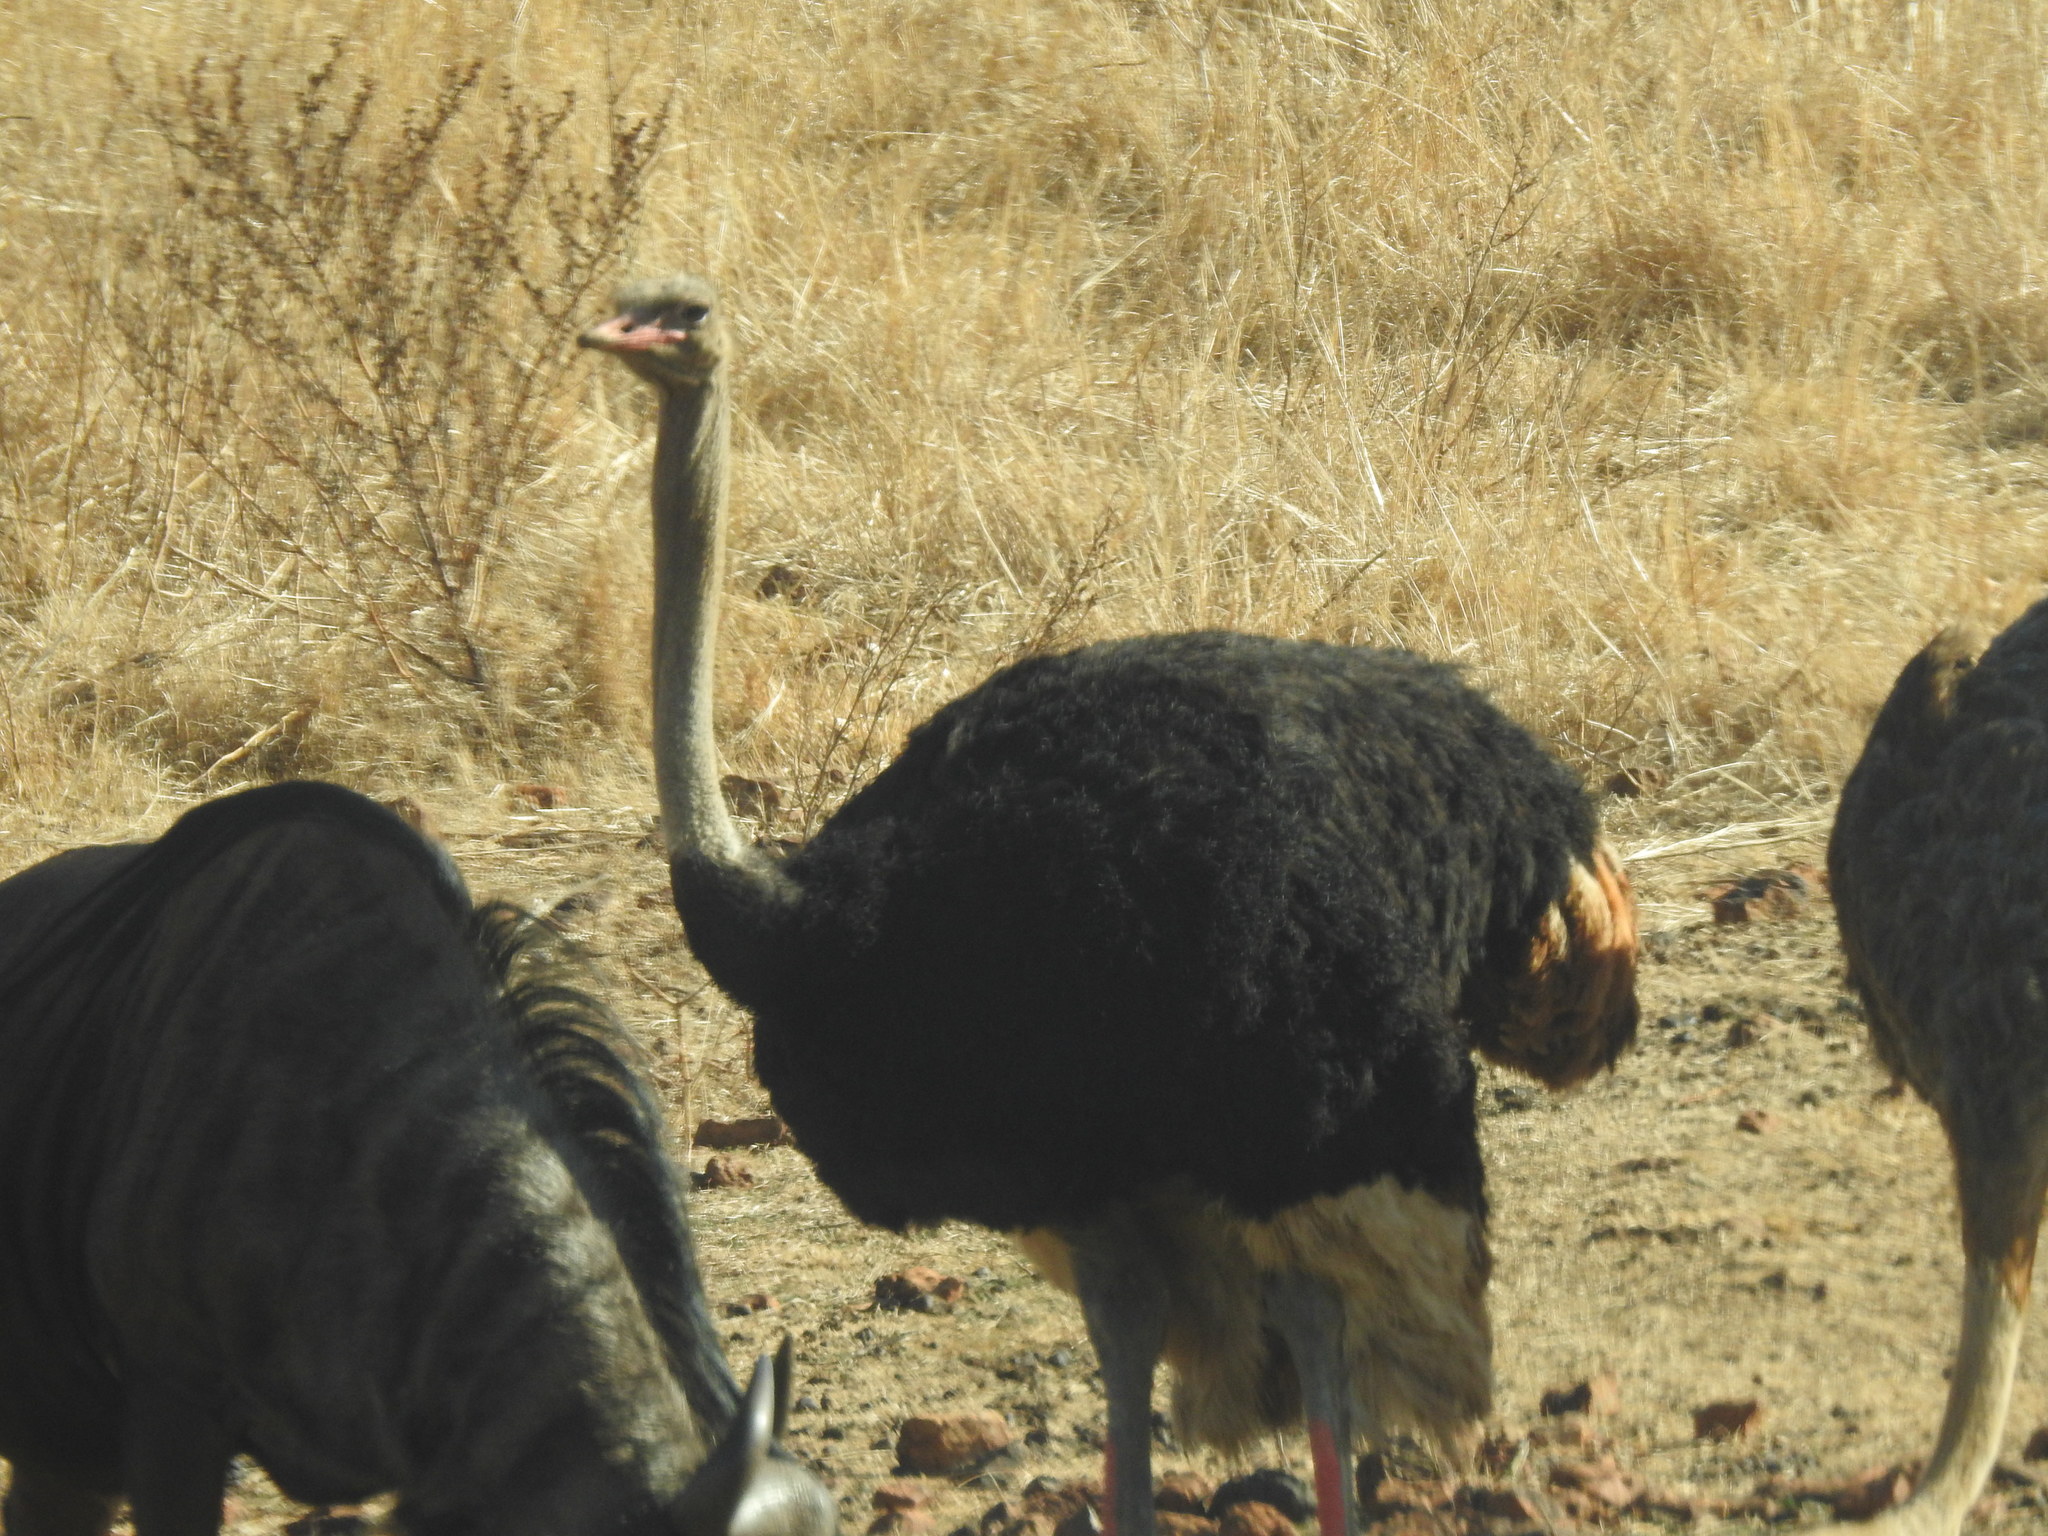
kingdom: Animalia
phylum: Chordata
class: Aves
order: Struthioniformes
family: Struthionidae
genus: Struthio
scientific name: Struthio camelus
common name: Common ostrich
